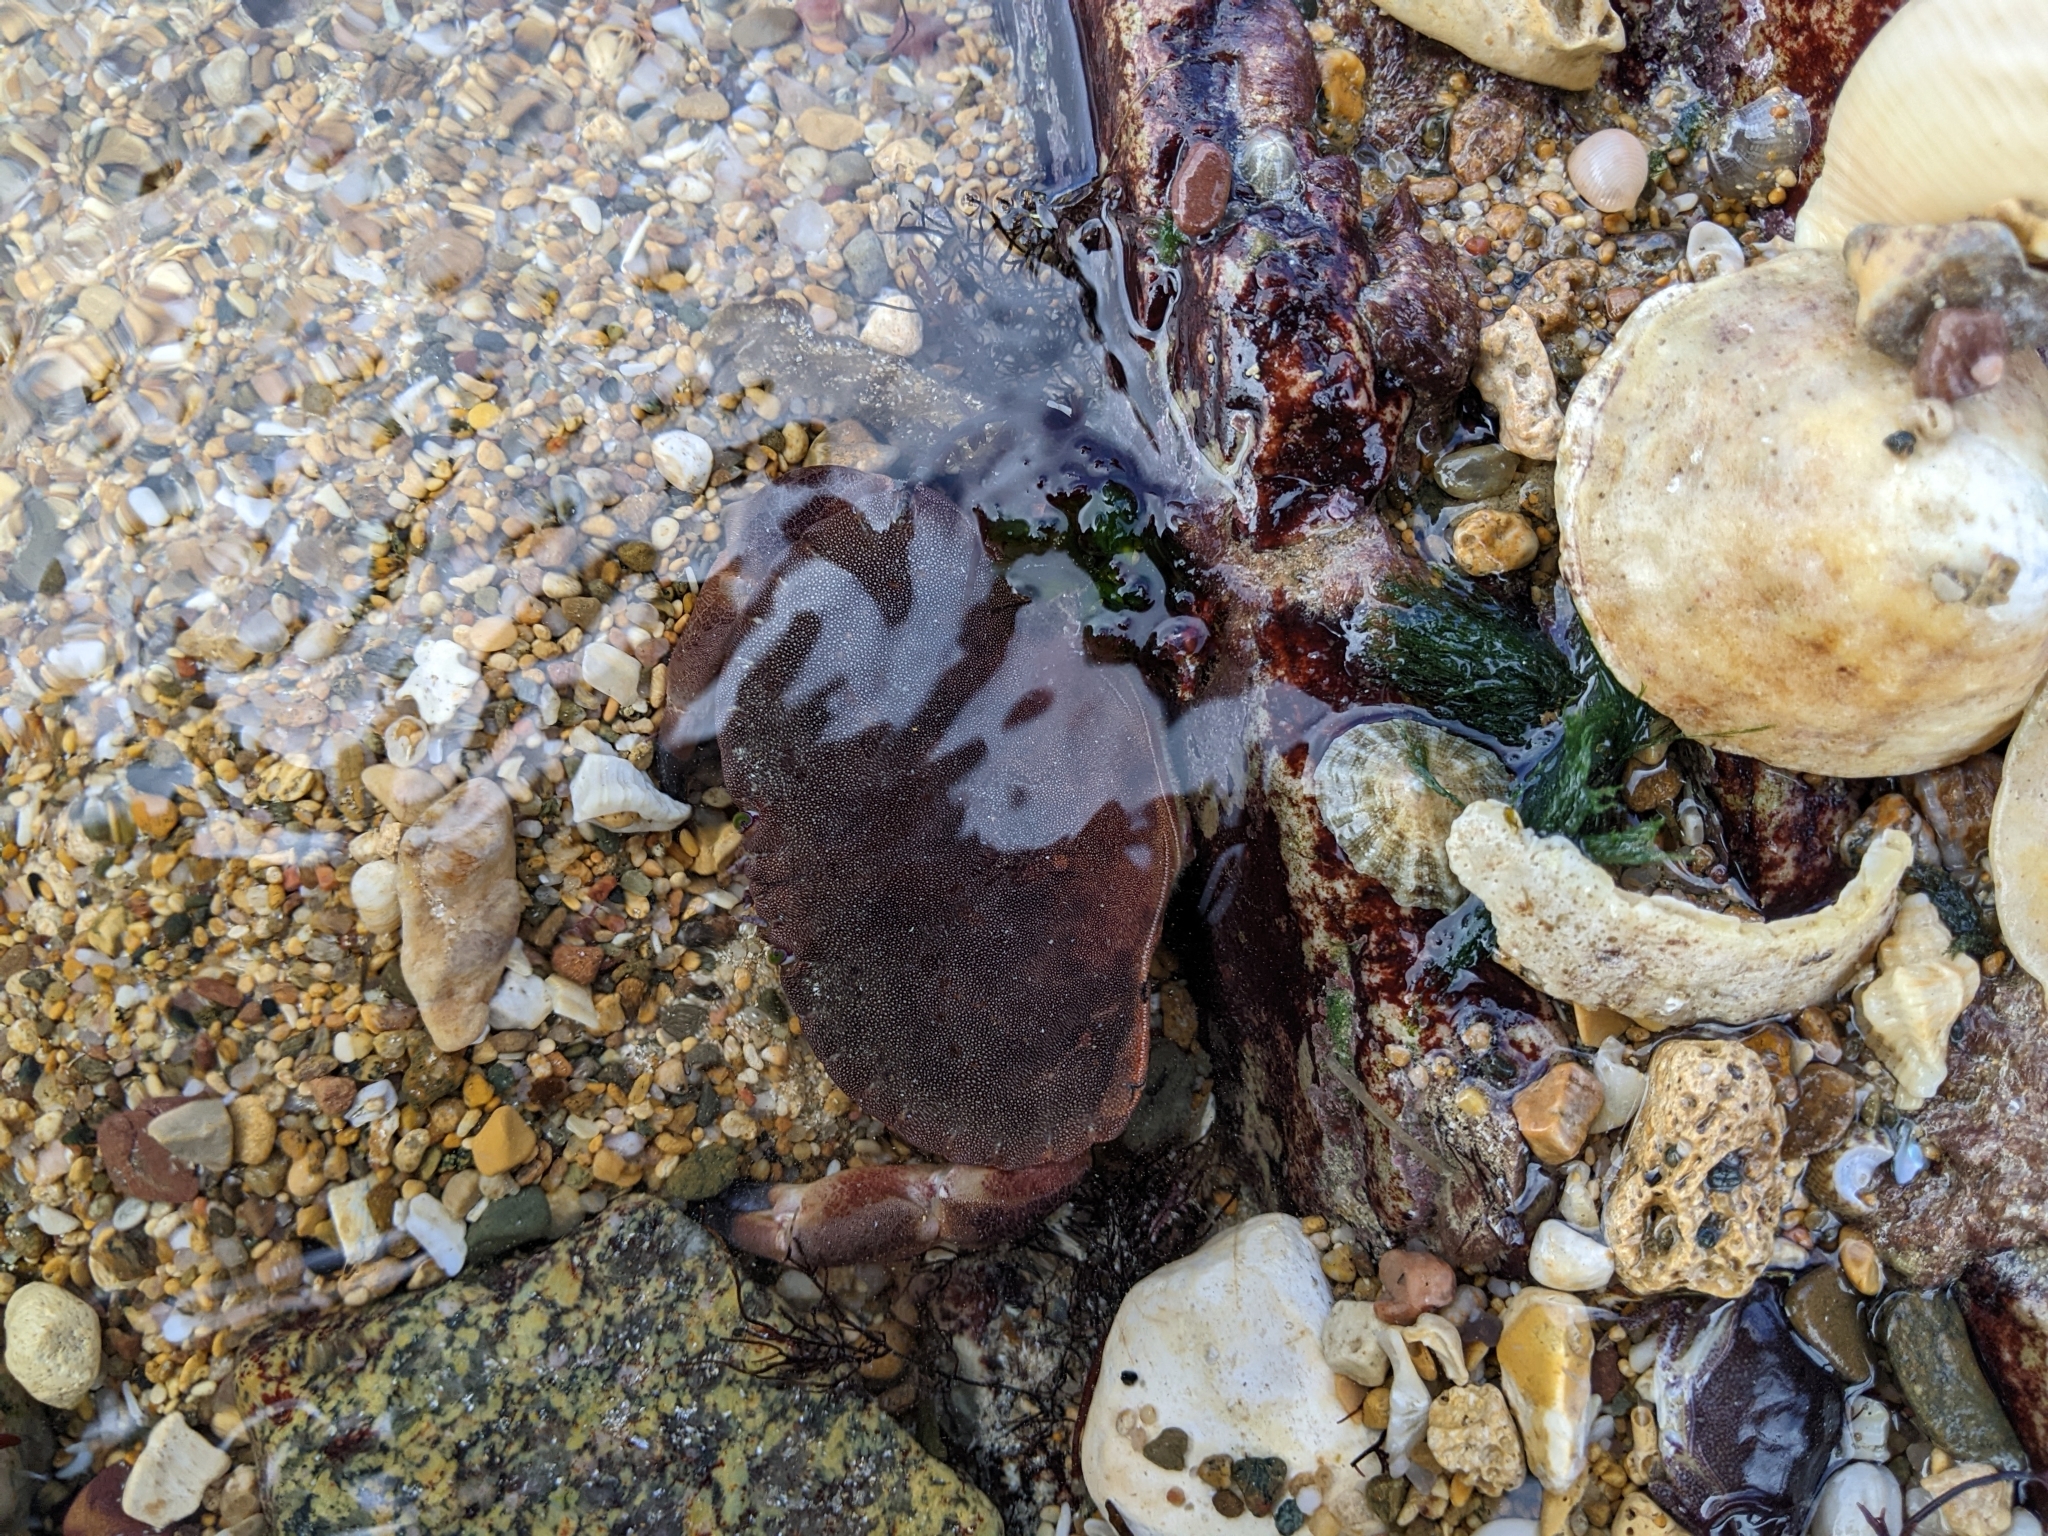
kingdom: Animalia
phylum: Arthropoda
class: Malacostraca
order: Decapoda
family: Cancridae
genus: Cancer
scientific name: Cancer pagurus
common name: Edible crab
